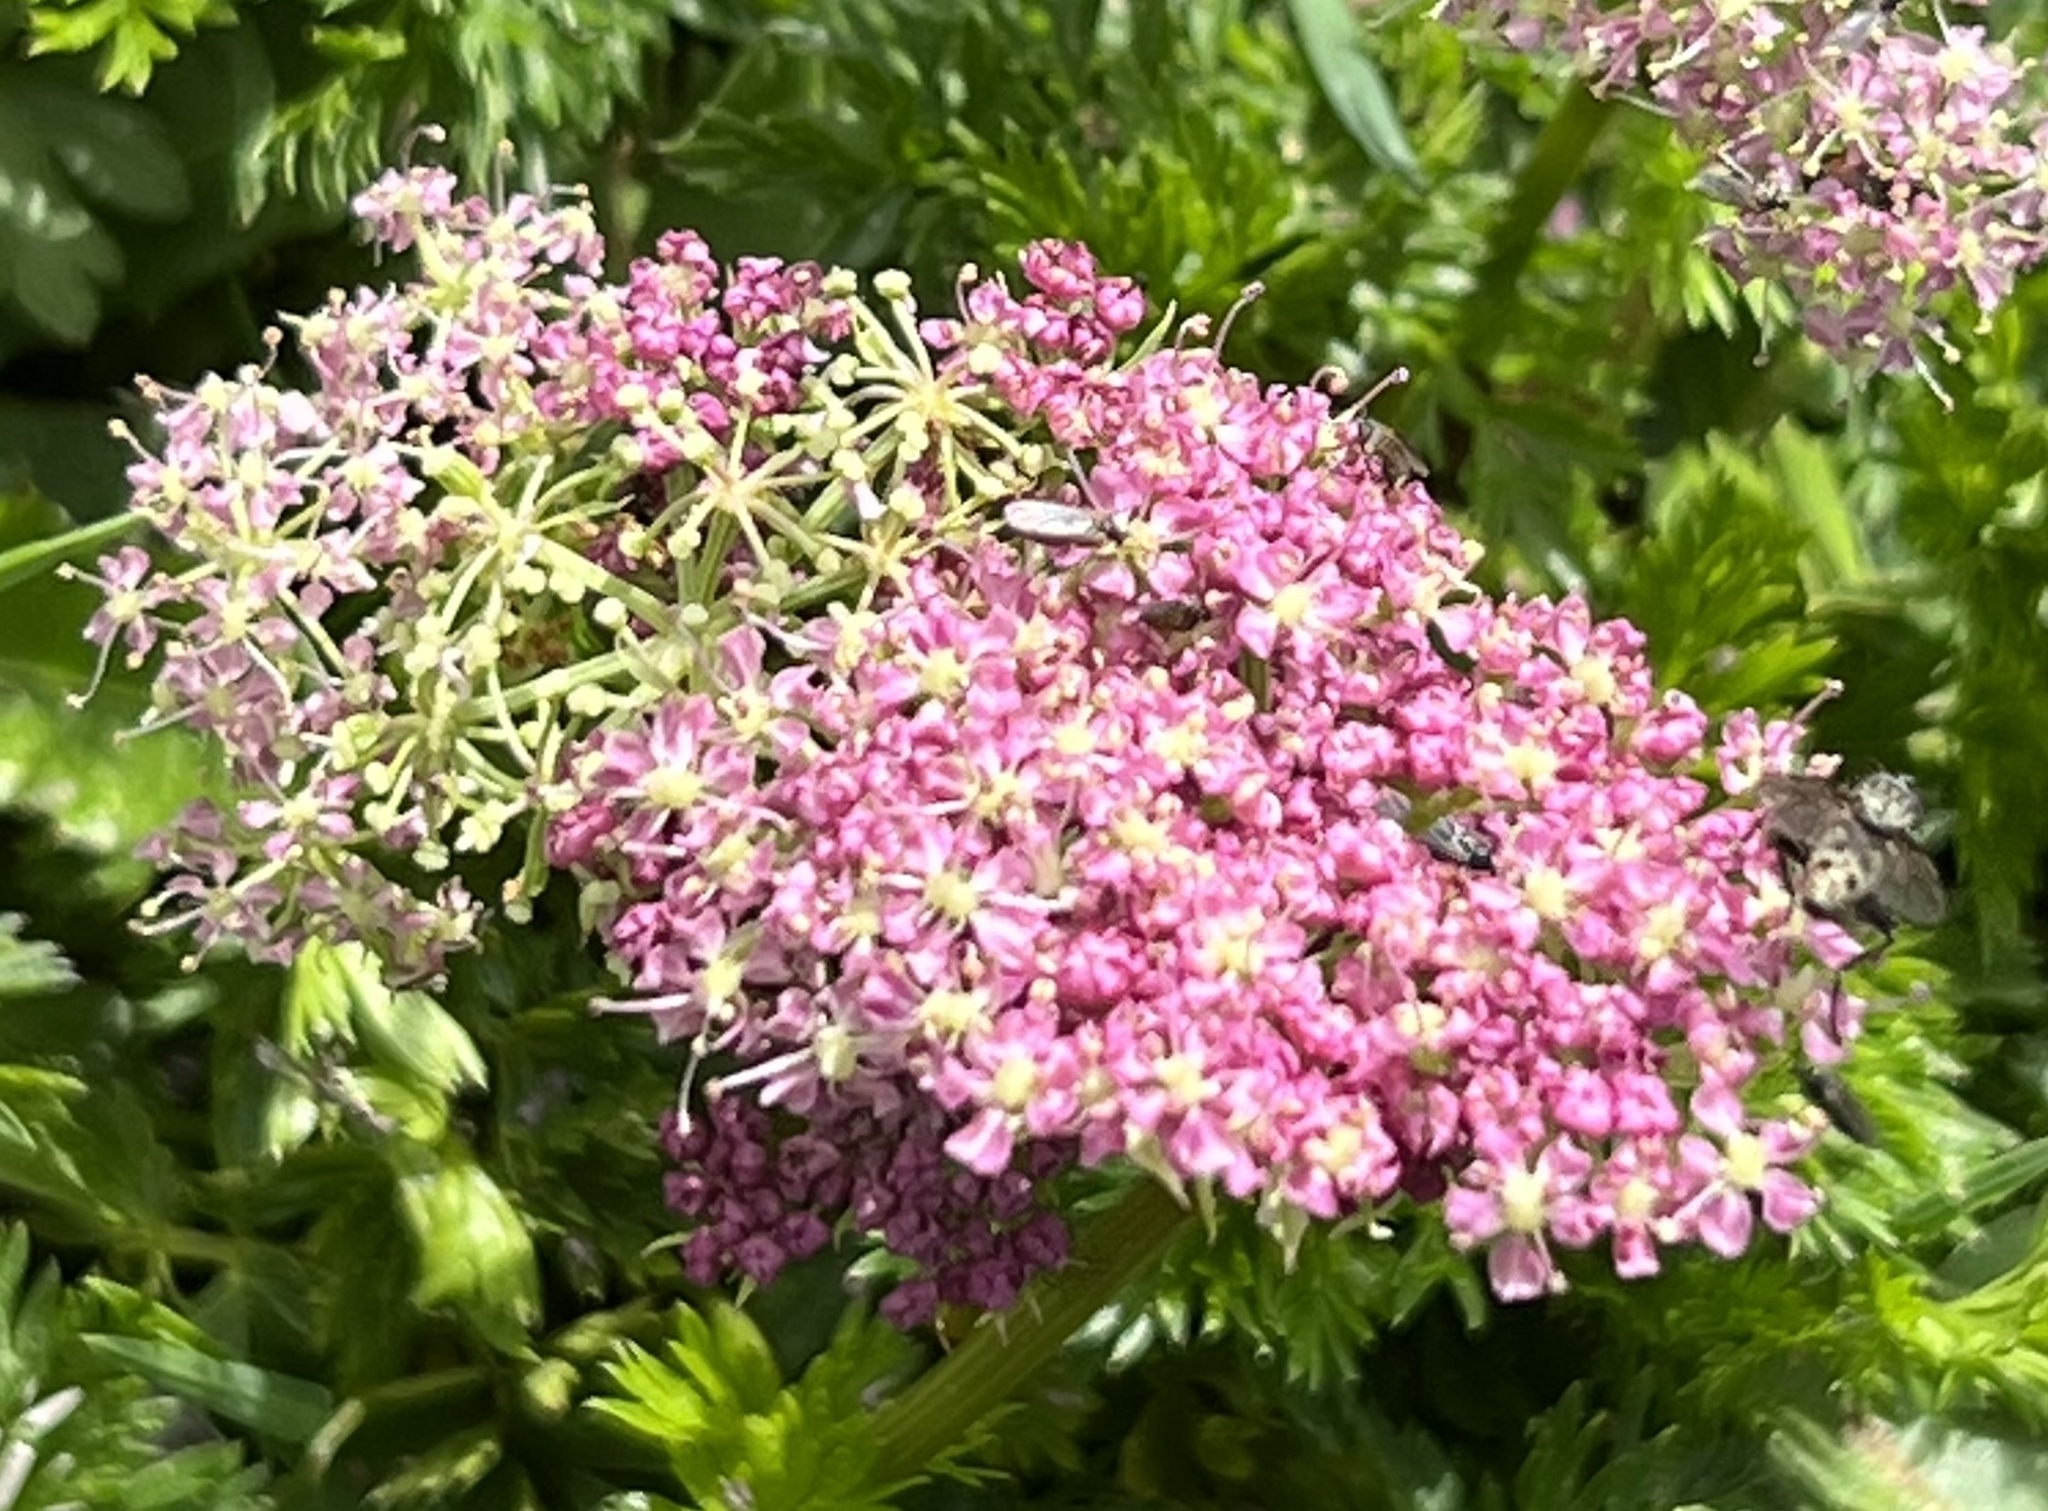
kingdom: Plantae
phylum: Tracheophyta
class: Magnoliopsida
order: Apiales
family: Apiaceae
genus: Mutellina
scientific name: Mutellina adonidifolia
